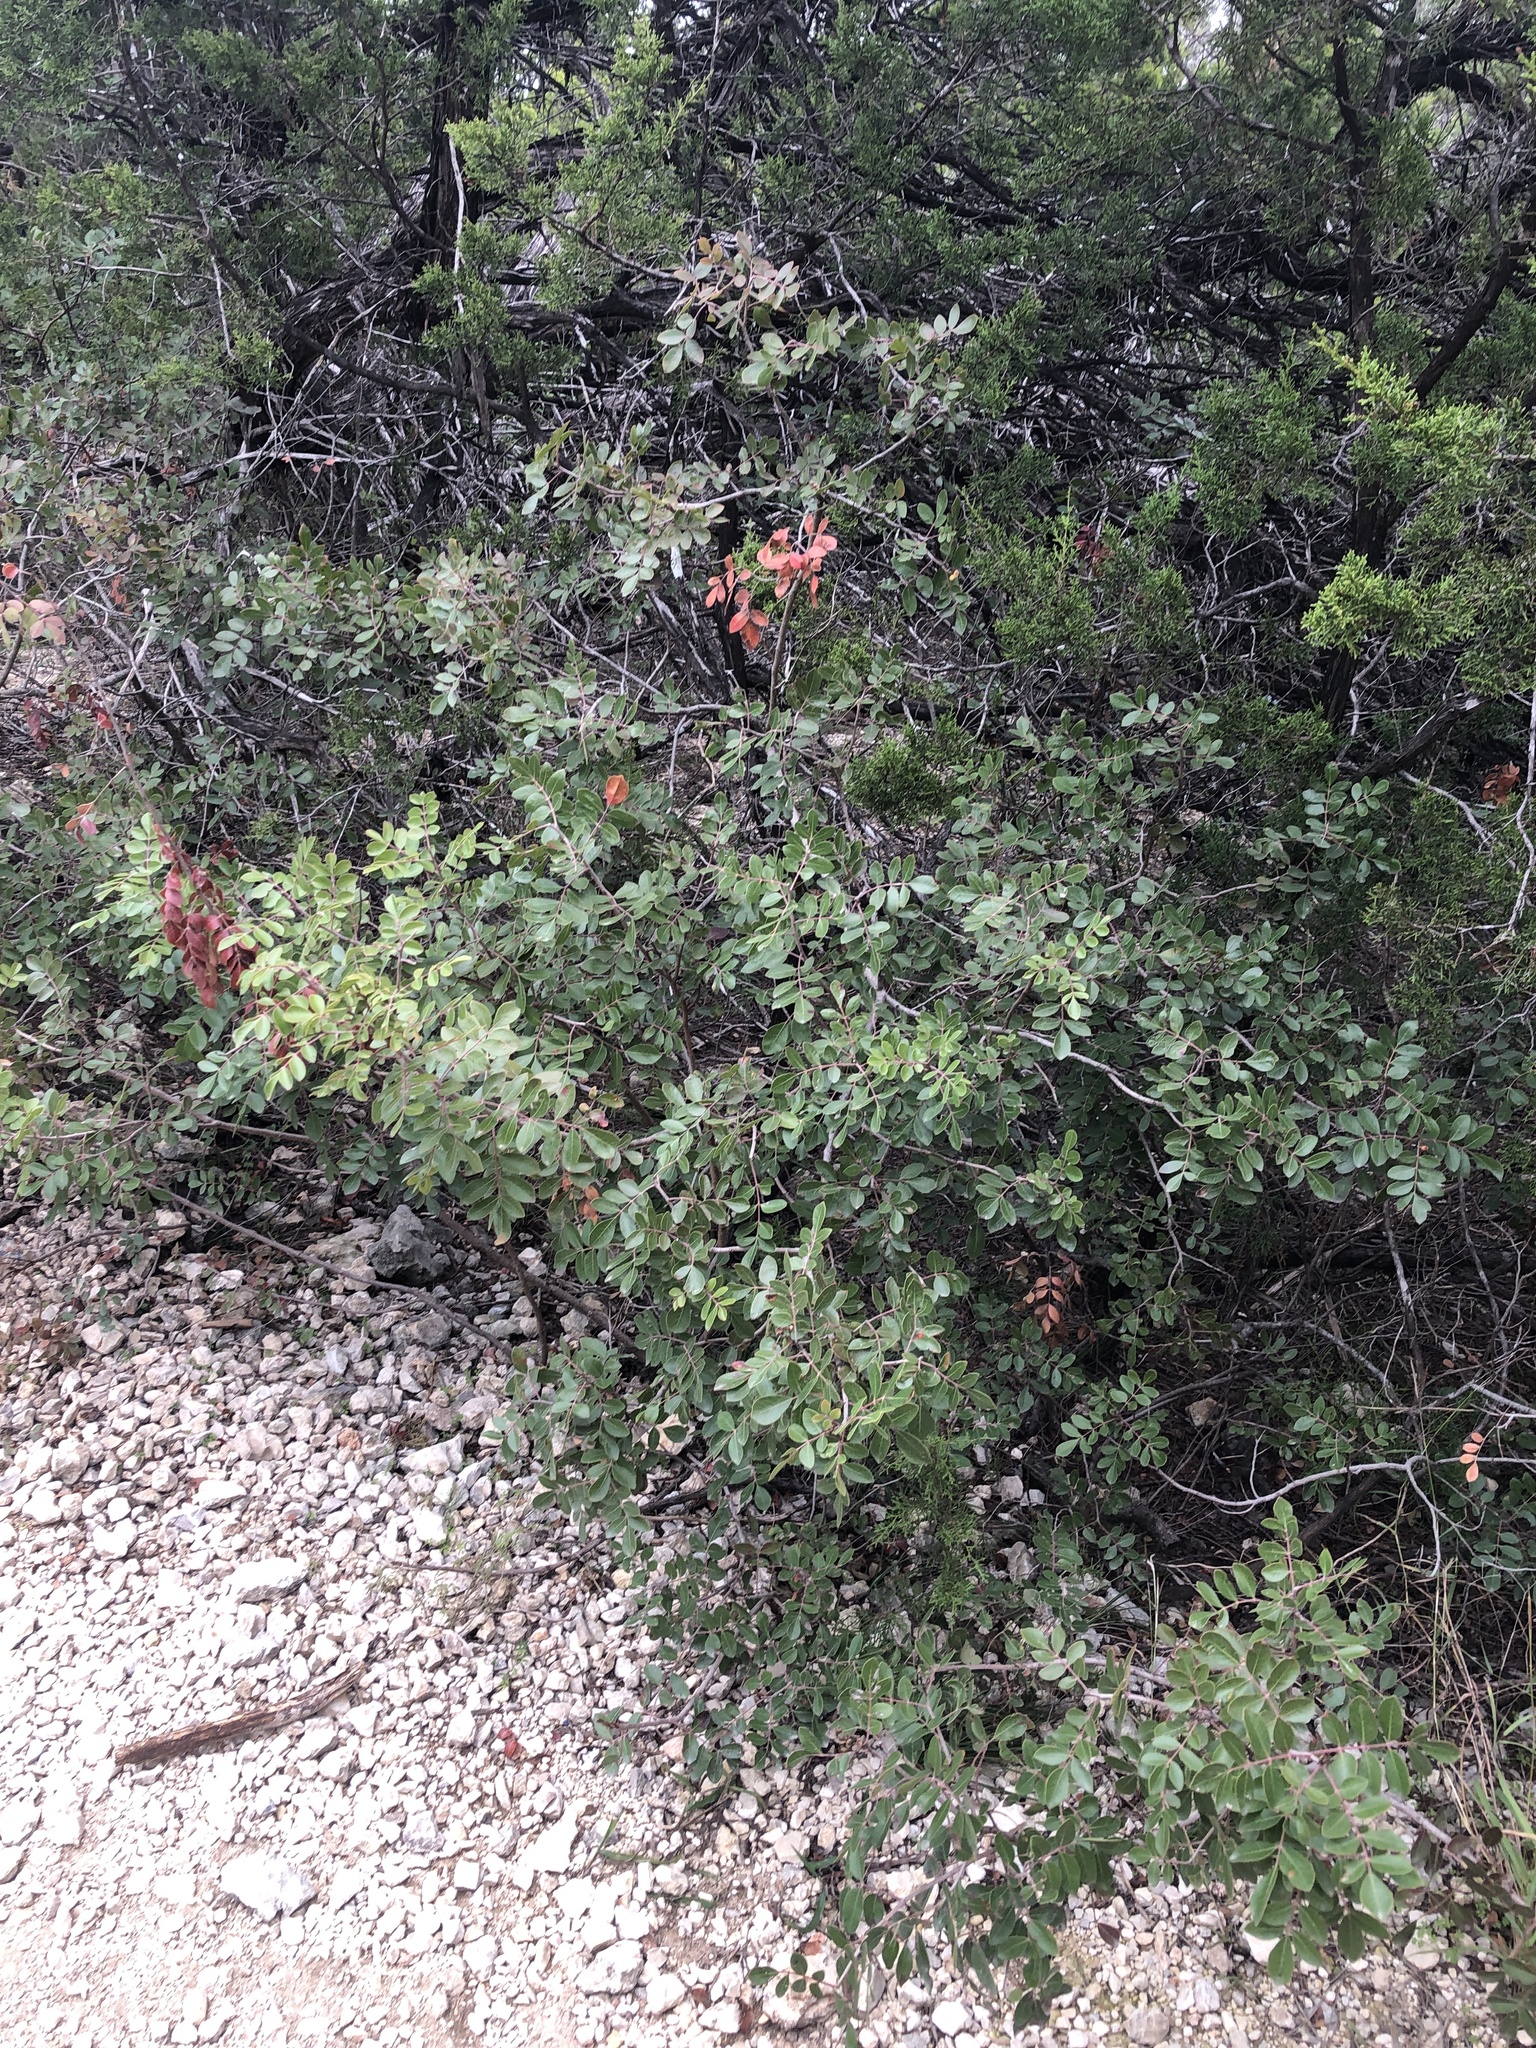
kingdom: Plantae
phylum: Tracheophyta
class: Magnoliopsida
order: Sapindales
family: Anacardiaceae
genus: Rhus
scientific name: Rhus virens
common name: Evergreen sumac
